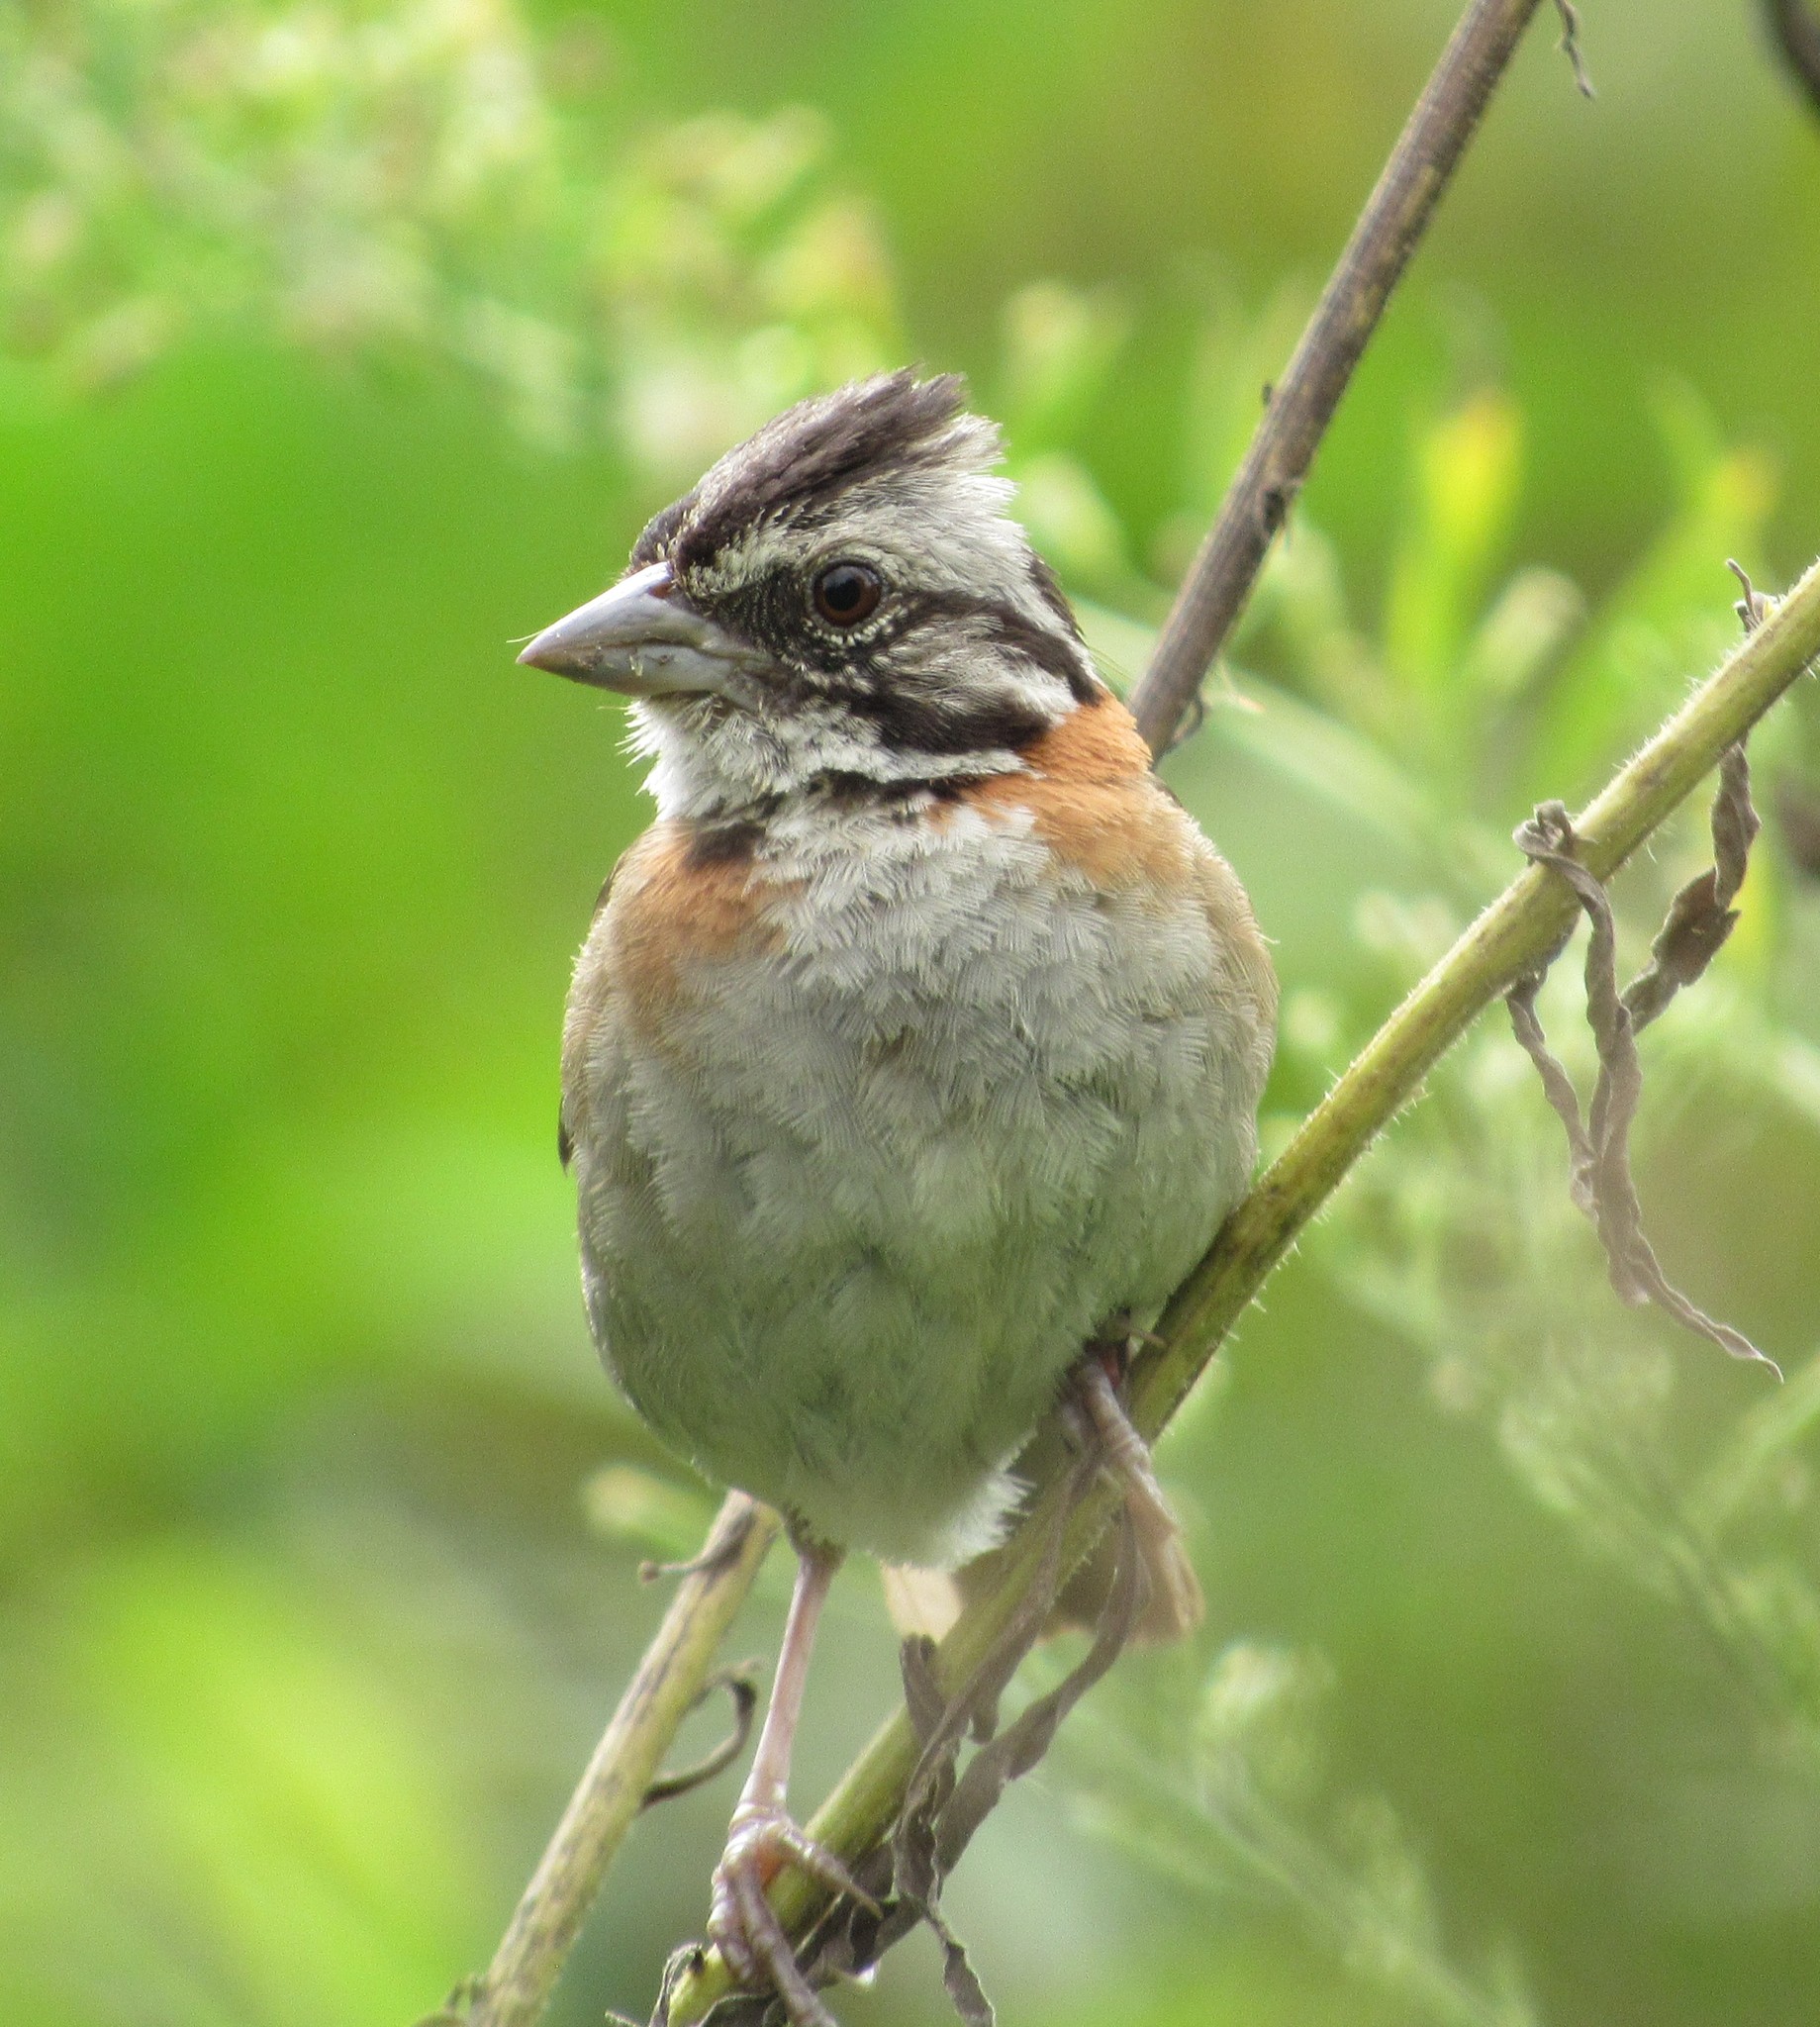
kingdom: Animalia
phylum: Chordata
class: Aves
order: Passeriformes
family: Passerellidae
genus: Zonotrichia
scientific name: Zonotrichia capensis
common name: Rufous-collared sparrow
